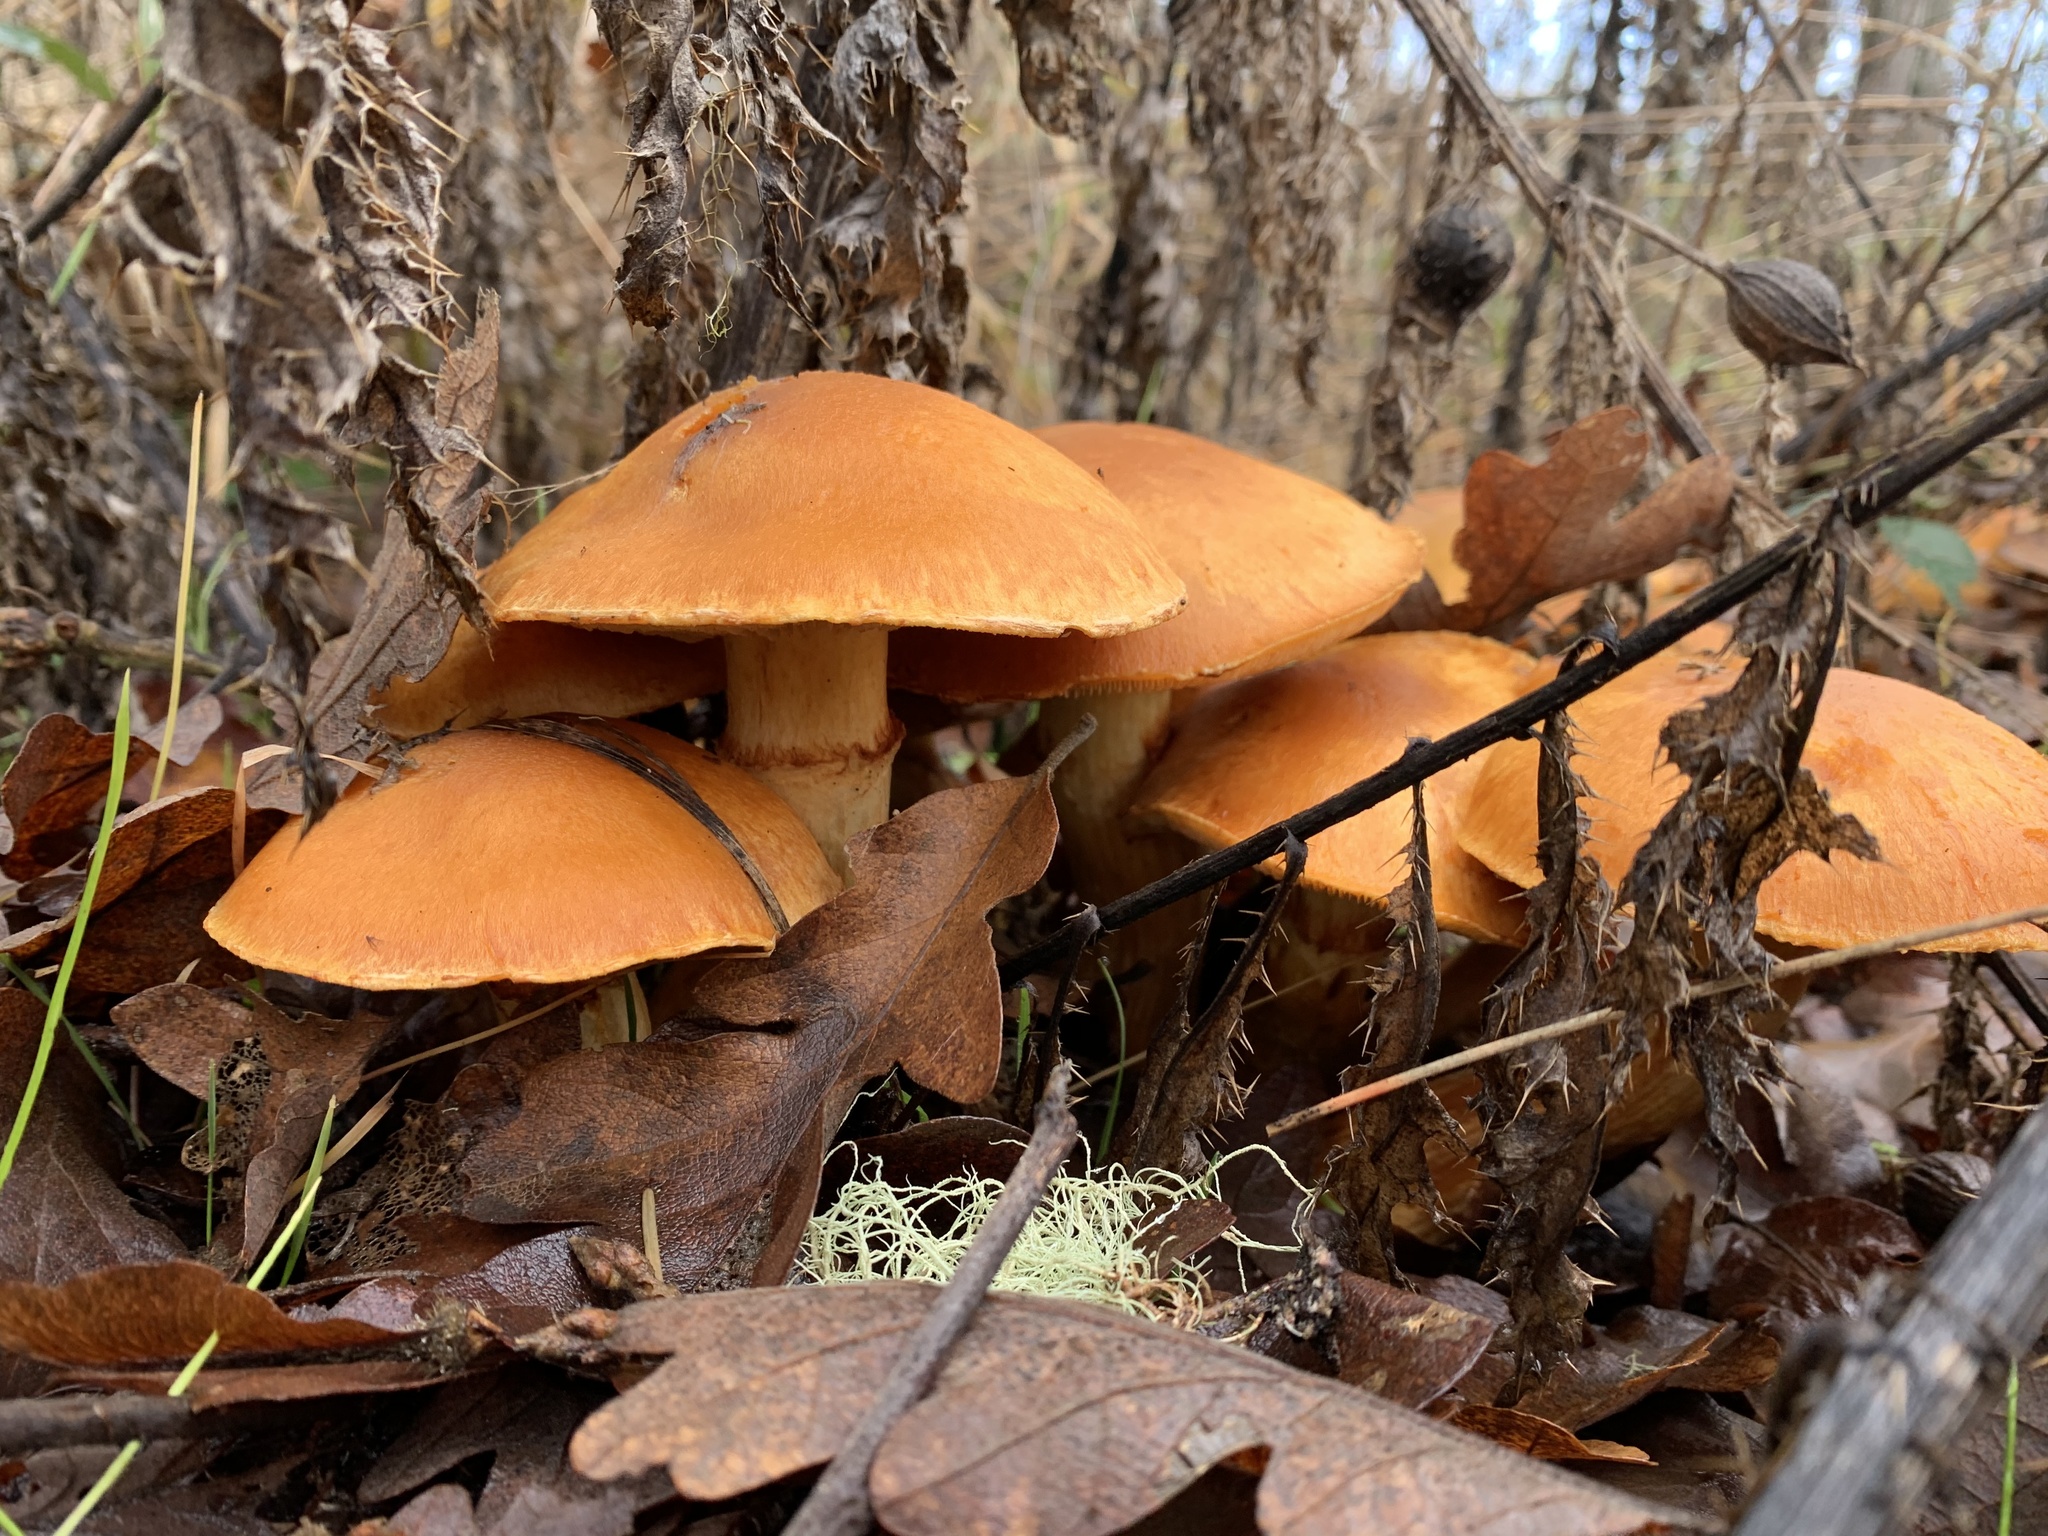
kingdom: Fungi
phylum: Basidiomycota
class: Agaricomycetes
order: Agaricales
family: Hymenogastraceae
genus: Gymnopilus
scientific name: Gymnopilus ventricosus
